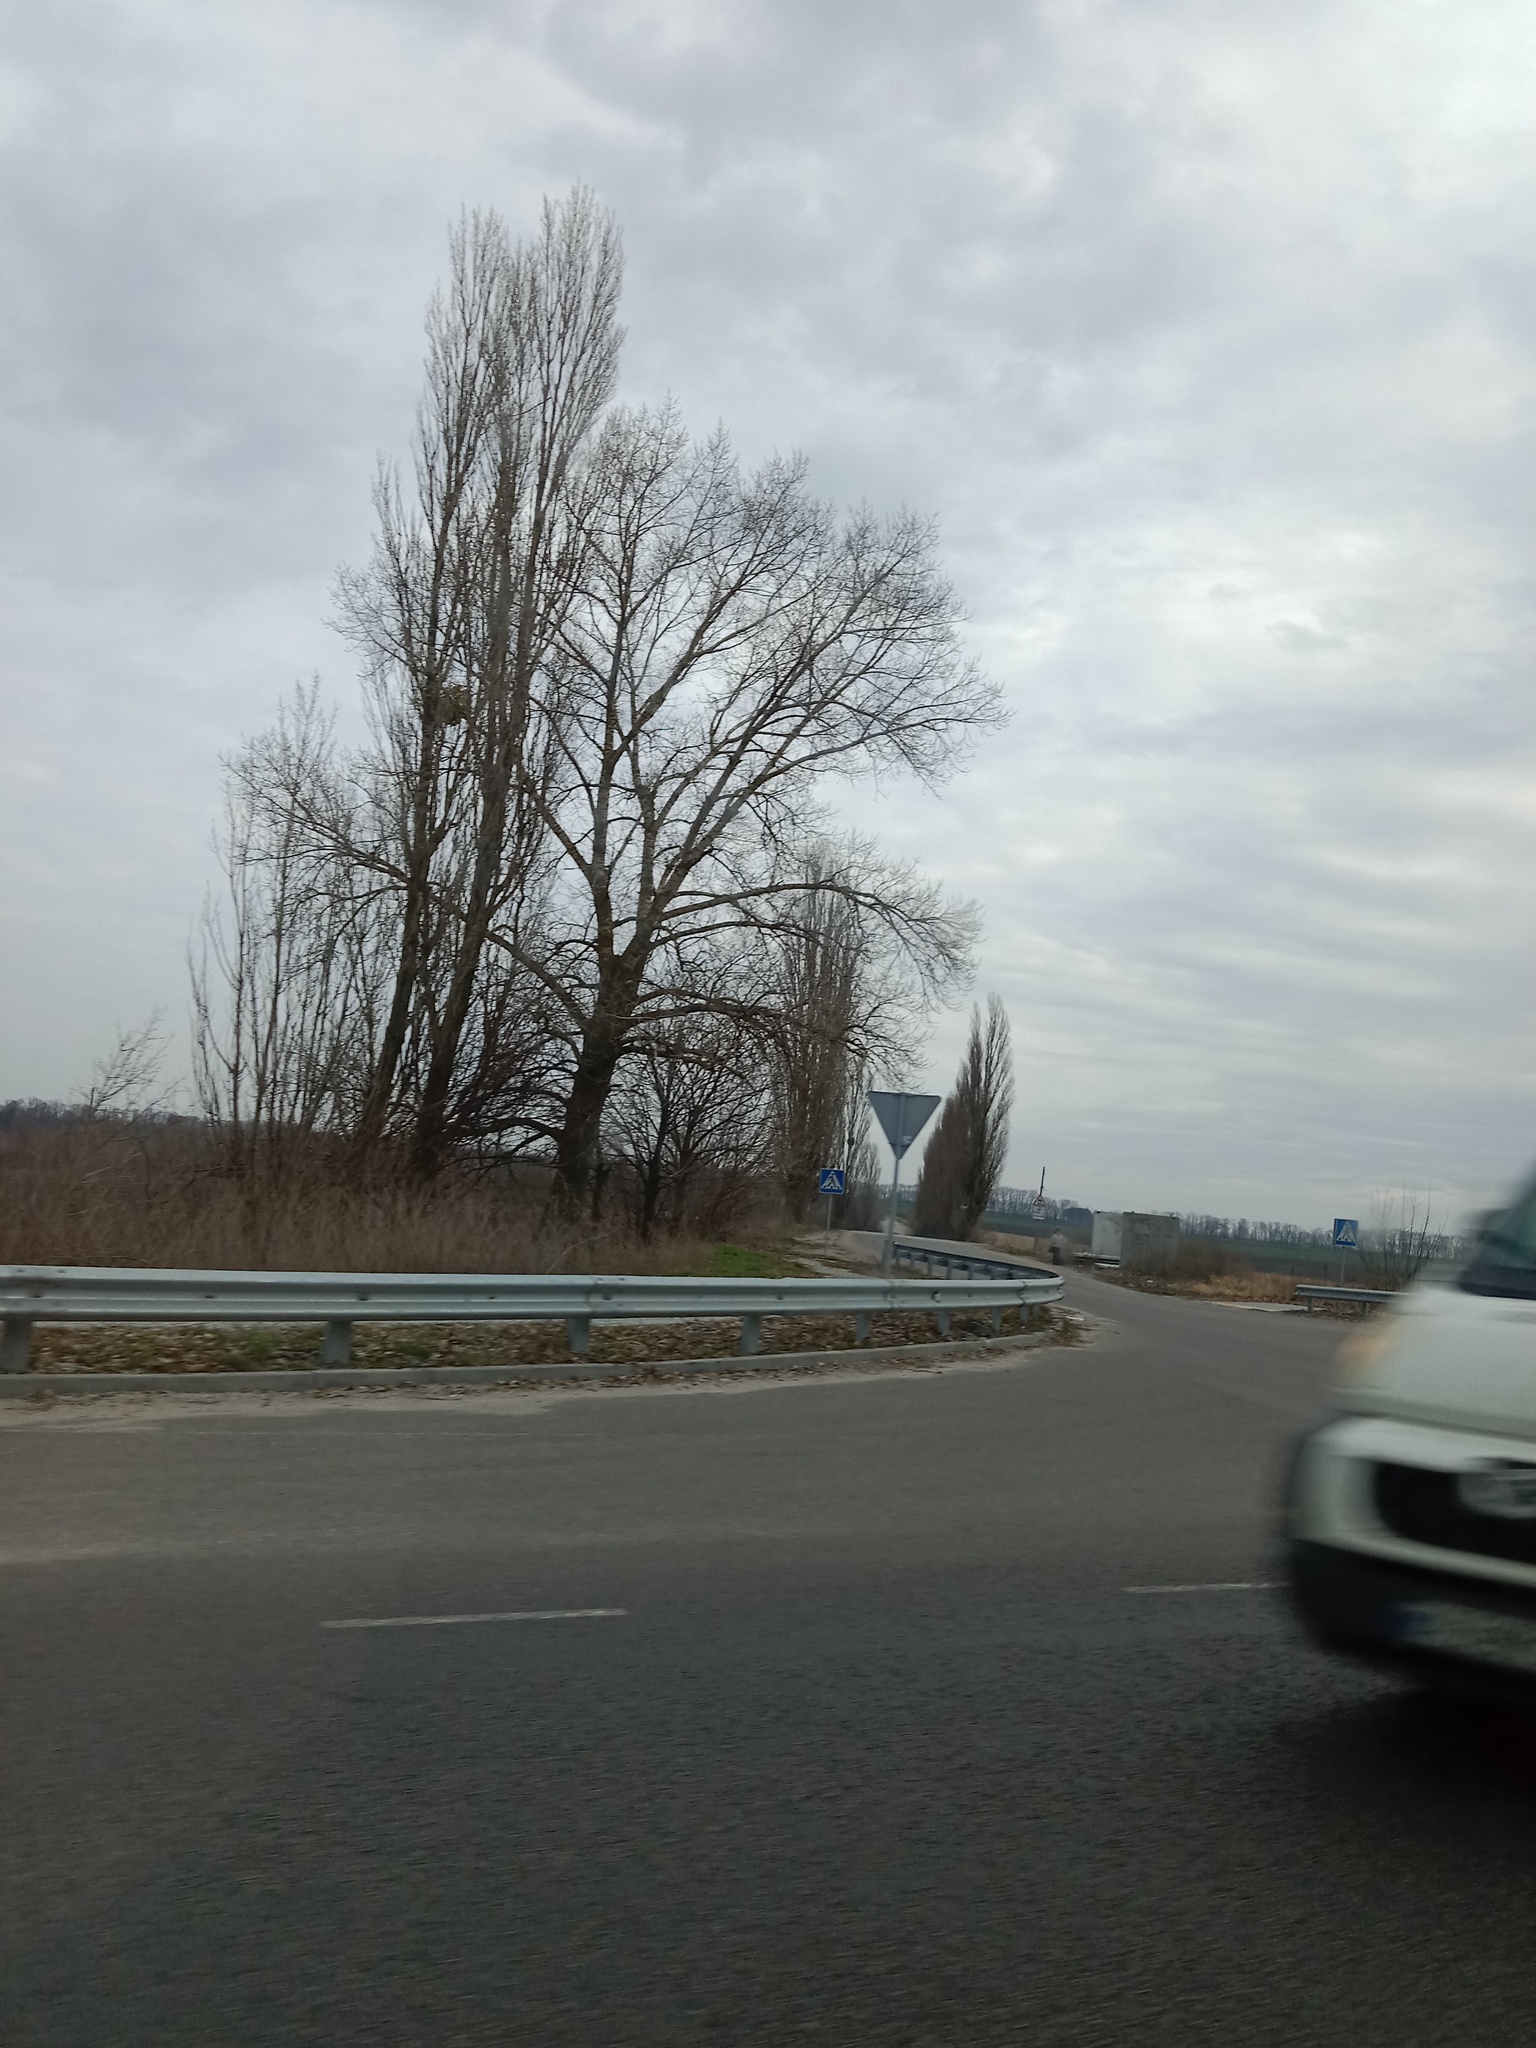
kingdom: Plantae
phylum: Tracheophyta
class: Magnoliopsida
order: Santalales
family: Viscaceae
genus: Viscum
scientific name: Viscum album
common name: Mistletoe
